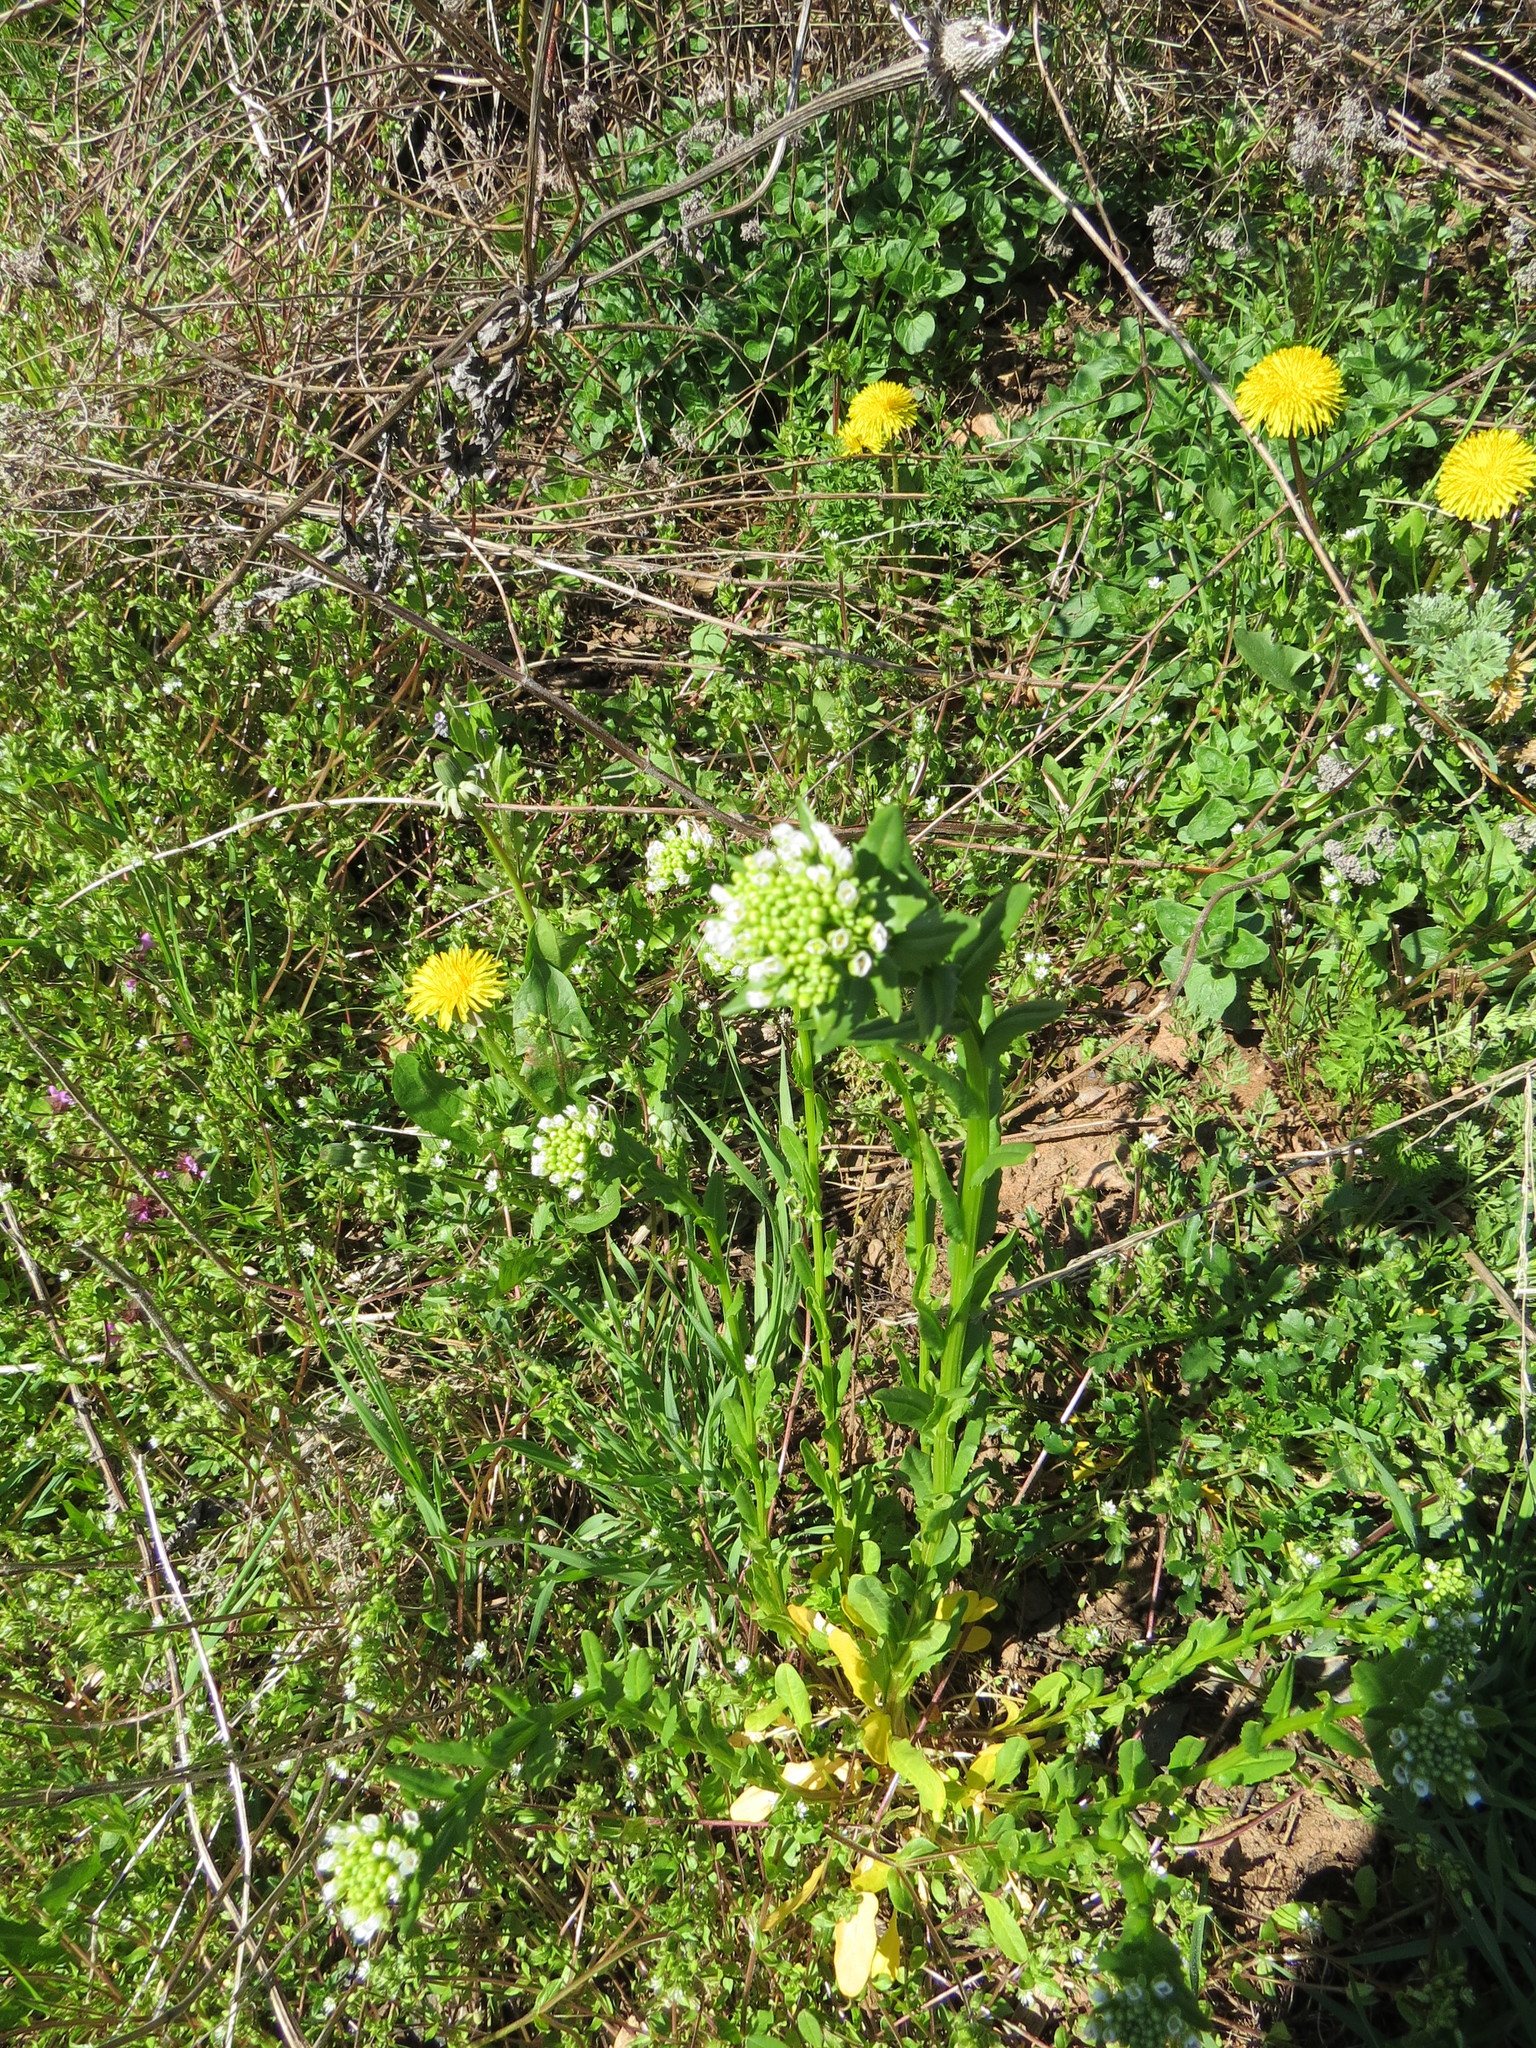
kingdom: Plantae
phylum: Tracheophyta
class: Magnoliopsida
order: Brassicales
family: Brassicaceae
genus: Thlaspi
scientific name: Thlaspi arvense
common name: Field pennycress
